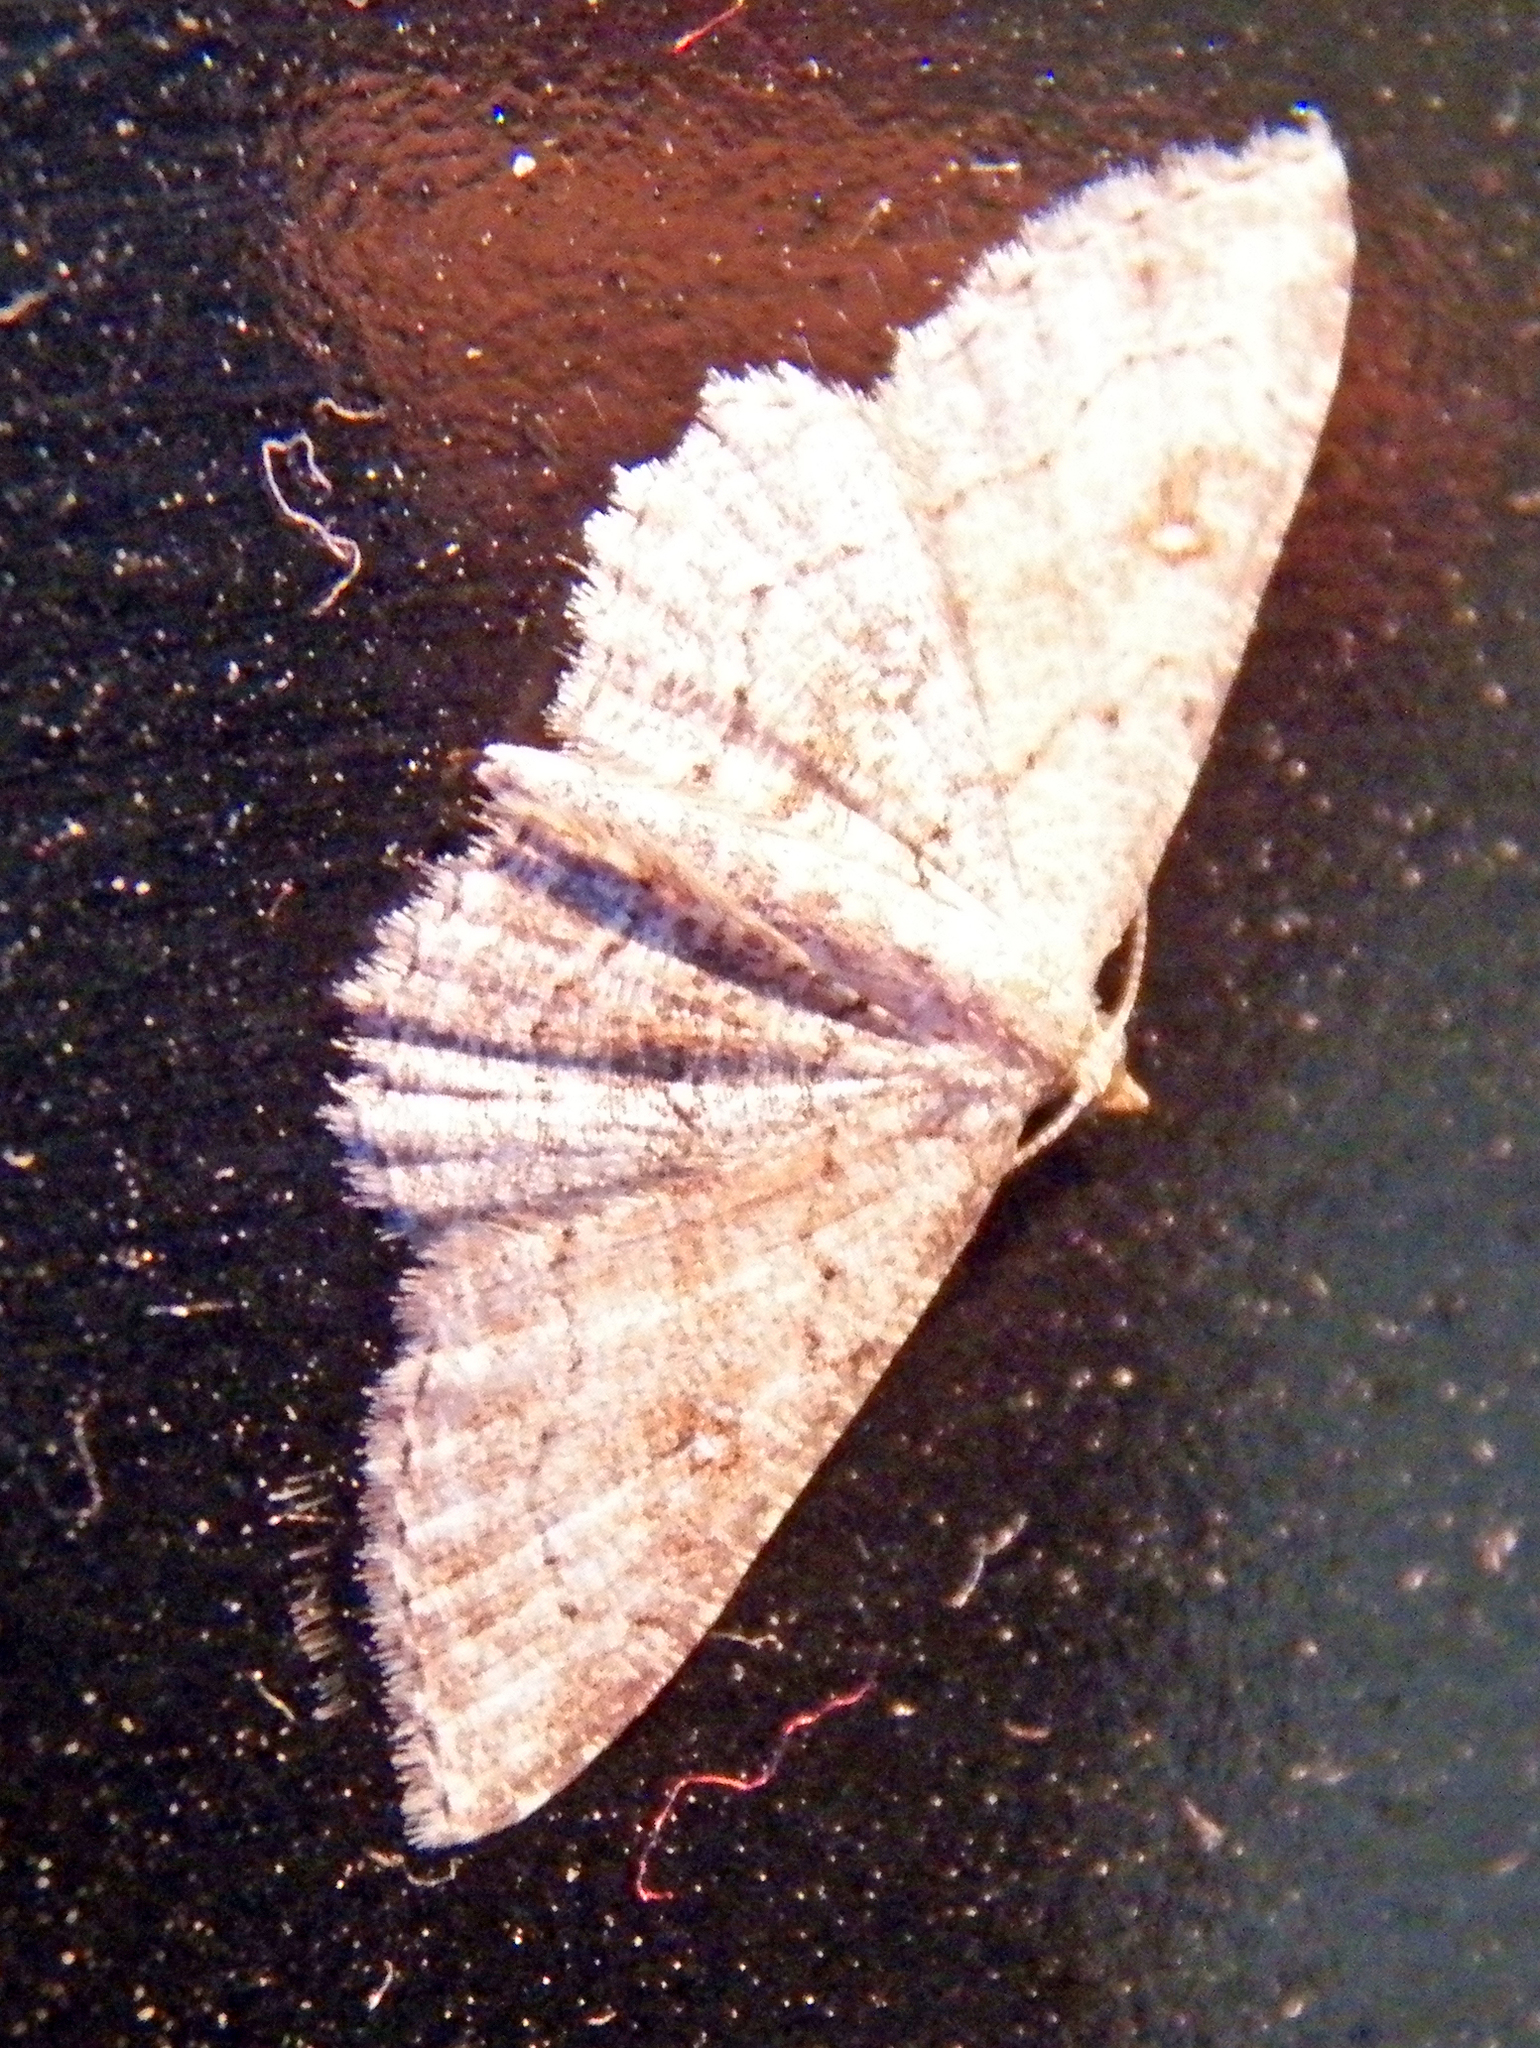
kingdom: Animalia
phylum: Arthropoda
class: Insecta
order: Lepidoptera
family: Geometridae
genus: Cyclophora
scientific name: Cyclophora nanaria
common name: Cankerworm
